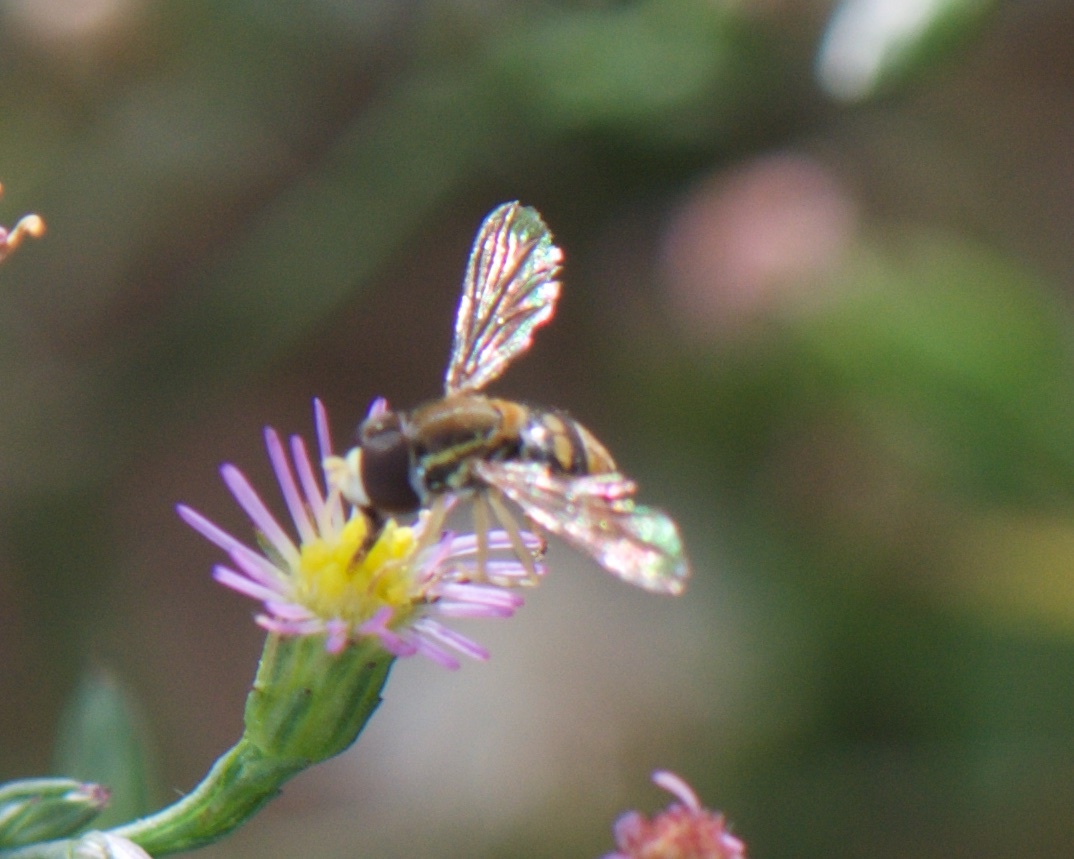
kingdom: Animalia
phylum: Arthropoda
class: Insecta
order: Diptera
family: Syrphidae
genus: Toxomerus
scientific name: Toxomerus marginatus
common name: Syrphid fly
